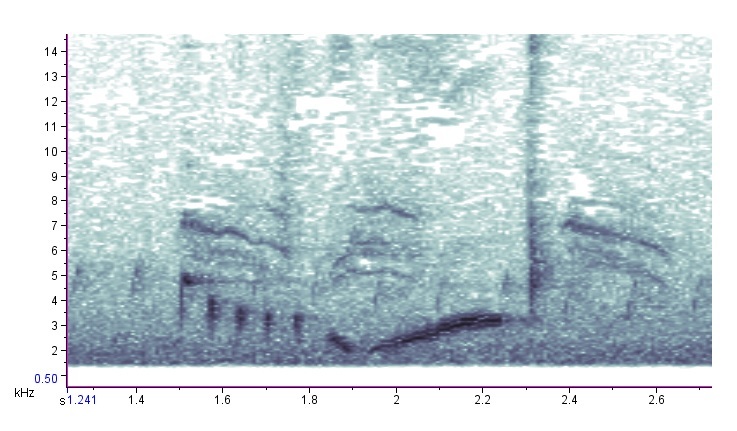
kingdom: Animalia
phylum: Chordata
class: Aves
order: Passeriformes
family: Vireonidae
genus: Vireo
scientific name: Vireo griseus
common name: White-eyed vireo
